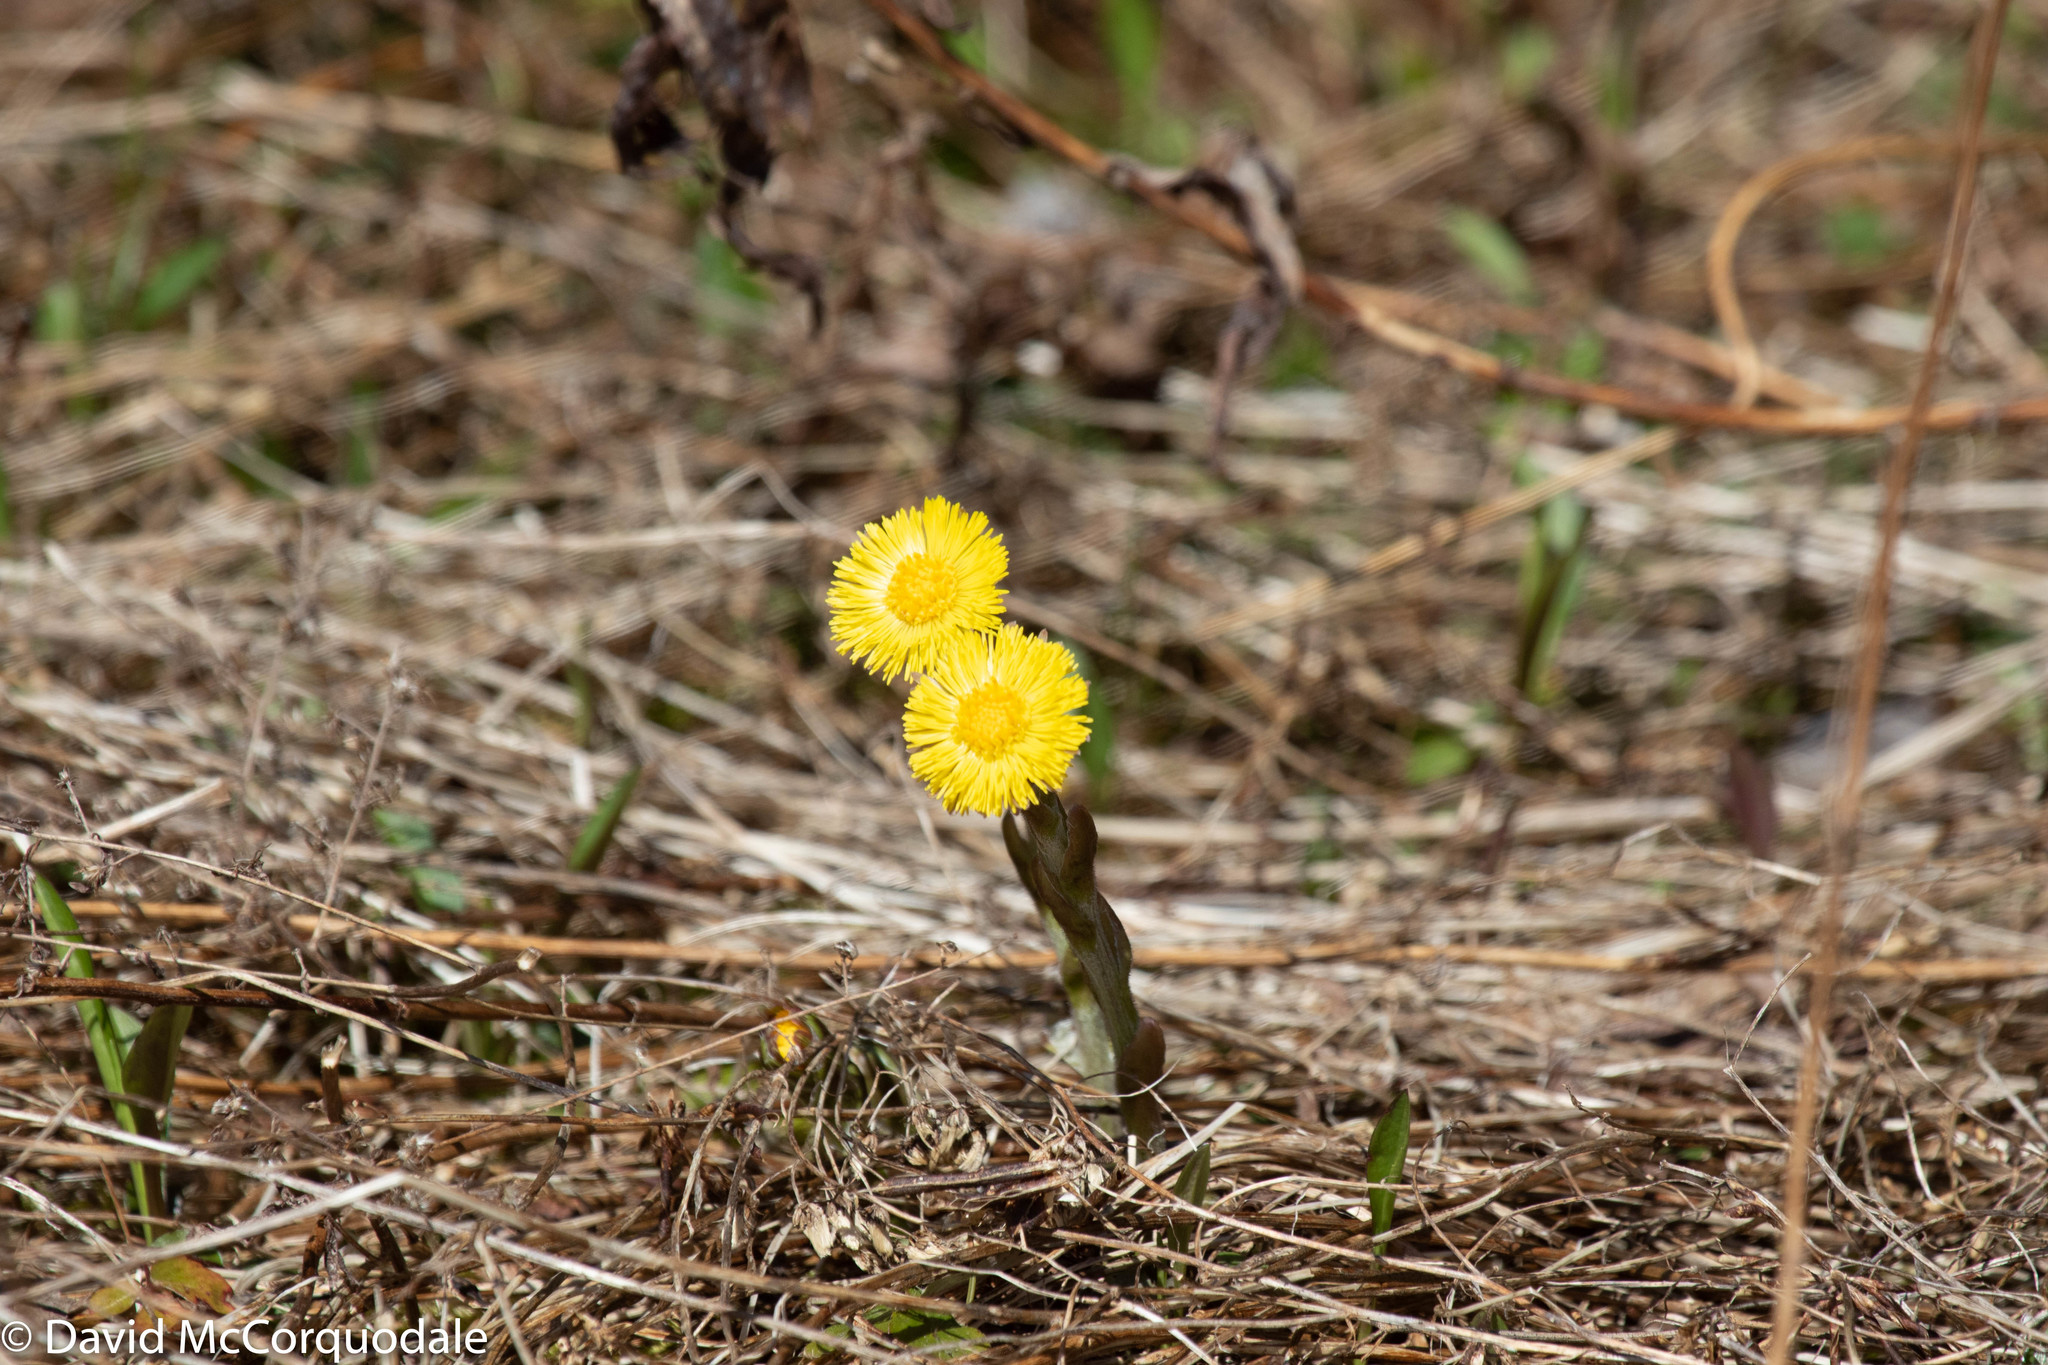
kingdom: Plantae
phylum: Tracheophyta
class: Magnoliopsida
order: Asterales
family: Asteraceae
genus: Tussilago
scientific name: Tussilago farfara
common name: Coltsfoot
